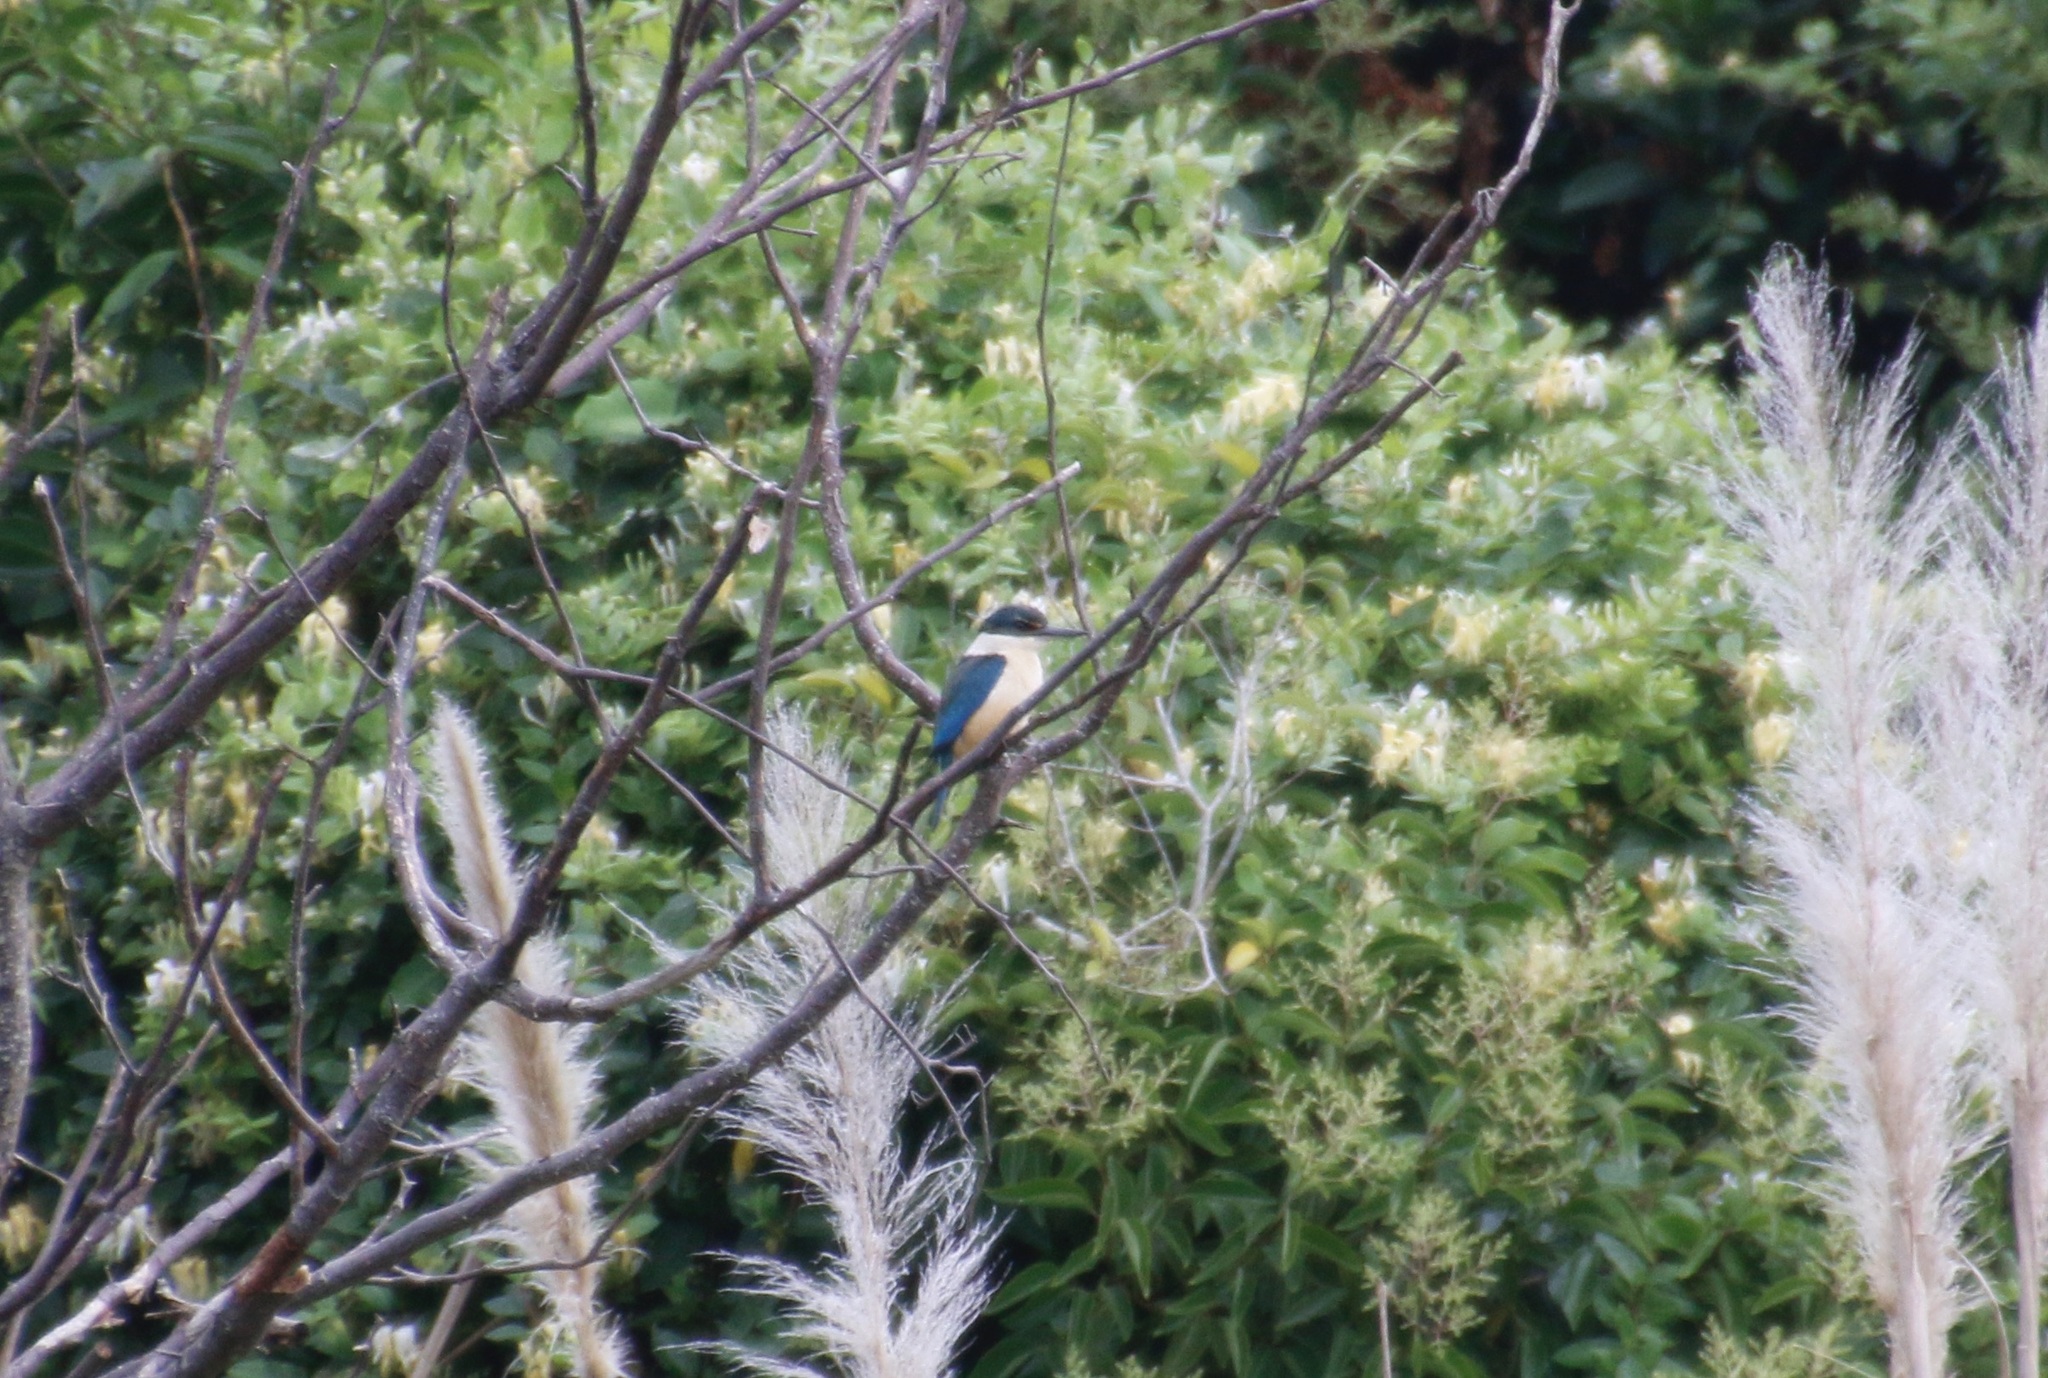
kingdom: Animalia
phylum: Chordata
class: Aves
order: Coraciiformes
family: Alcedinidae
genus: Todiramphus
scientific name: Todiramphus sanctus
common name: Sacred kingfisher
